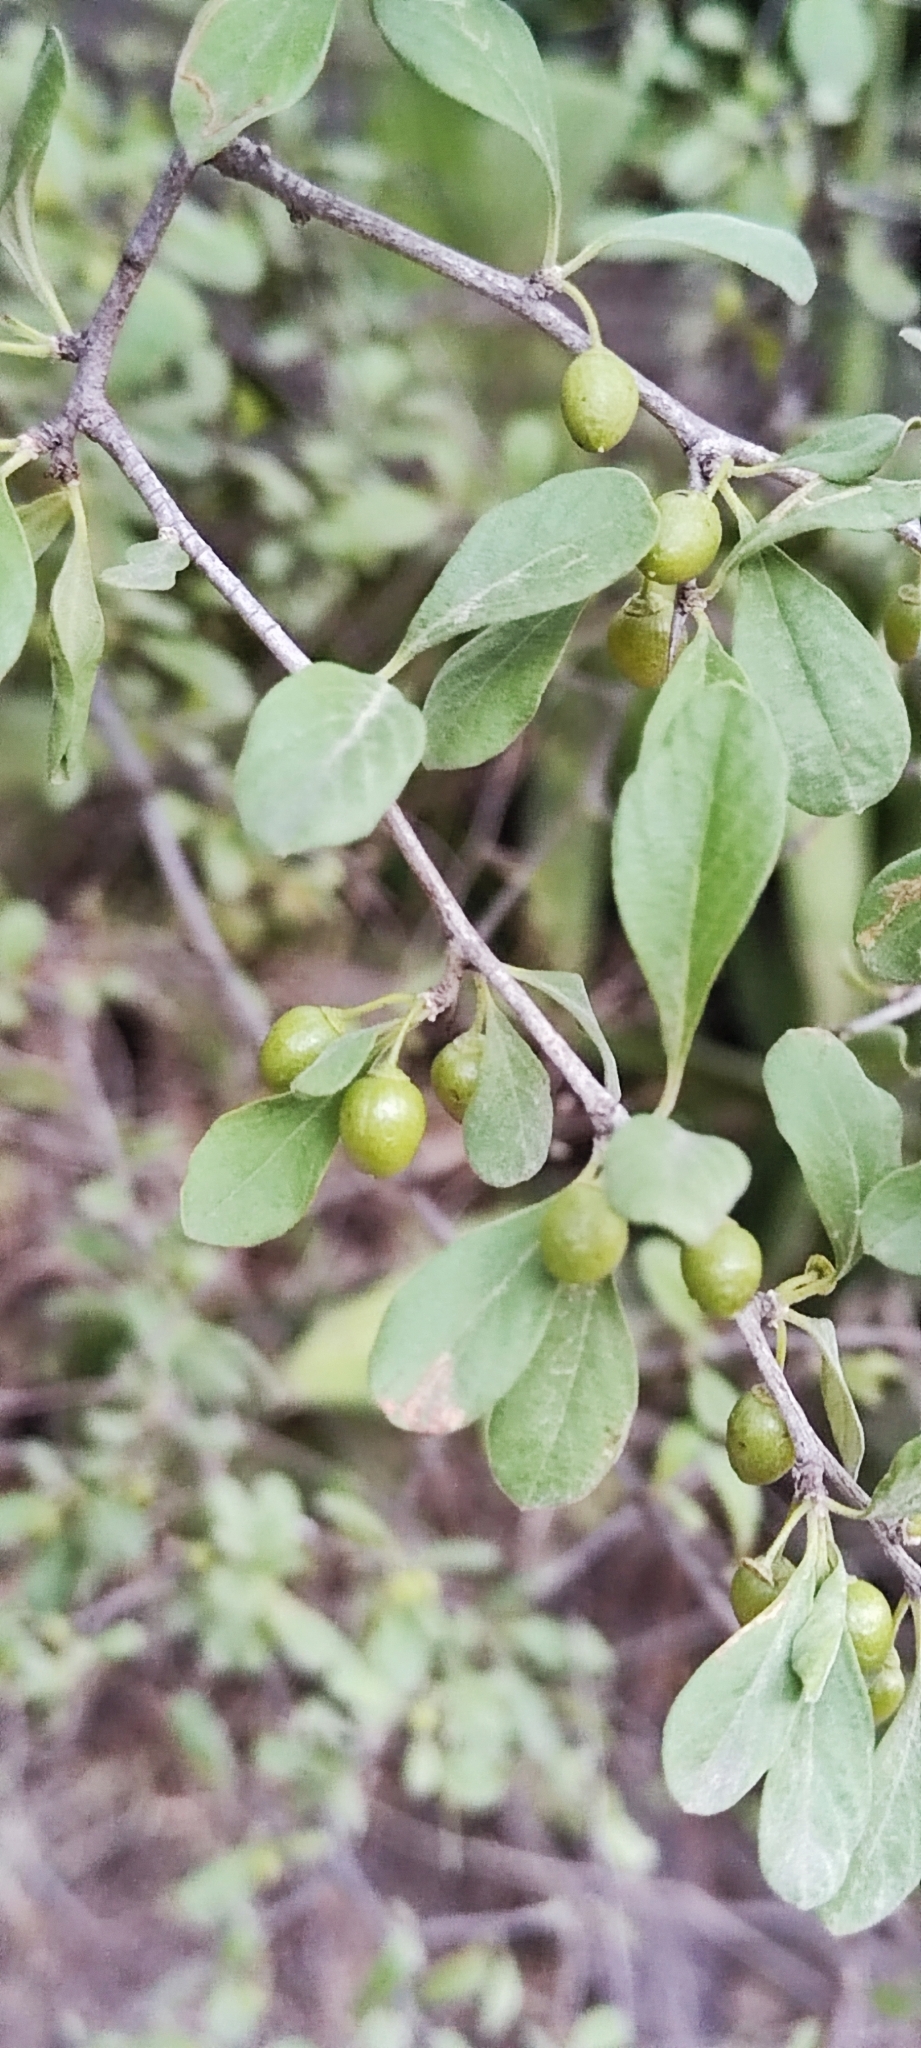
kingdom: Plantae
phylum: Tracheophyta
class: Magnoliopsida
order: Ericales
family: Sapotaceae
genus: Sideroxylon
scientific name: Sideroxylon obtusifolium
